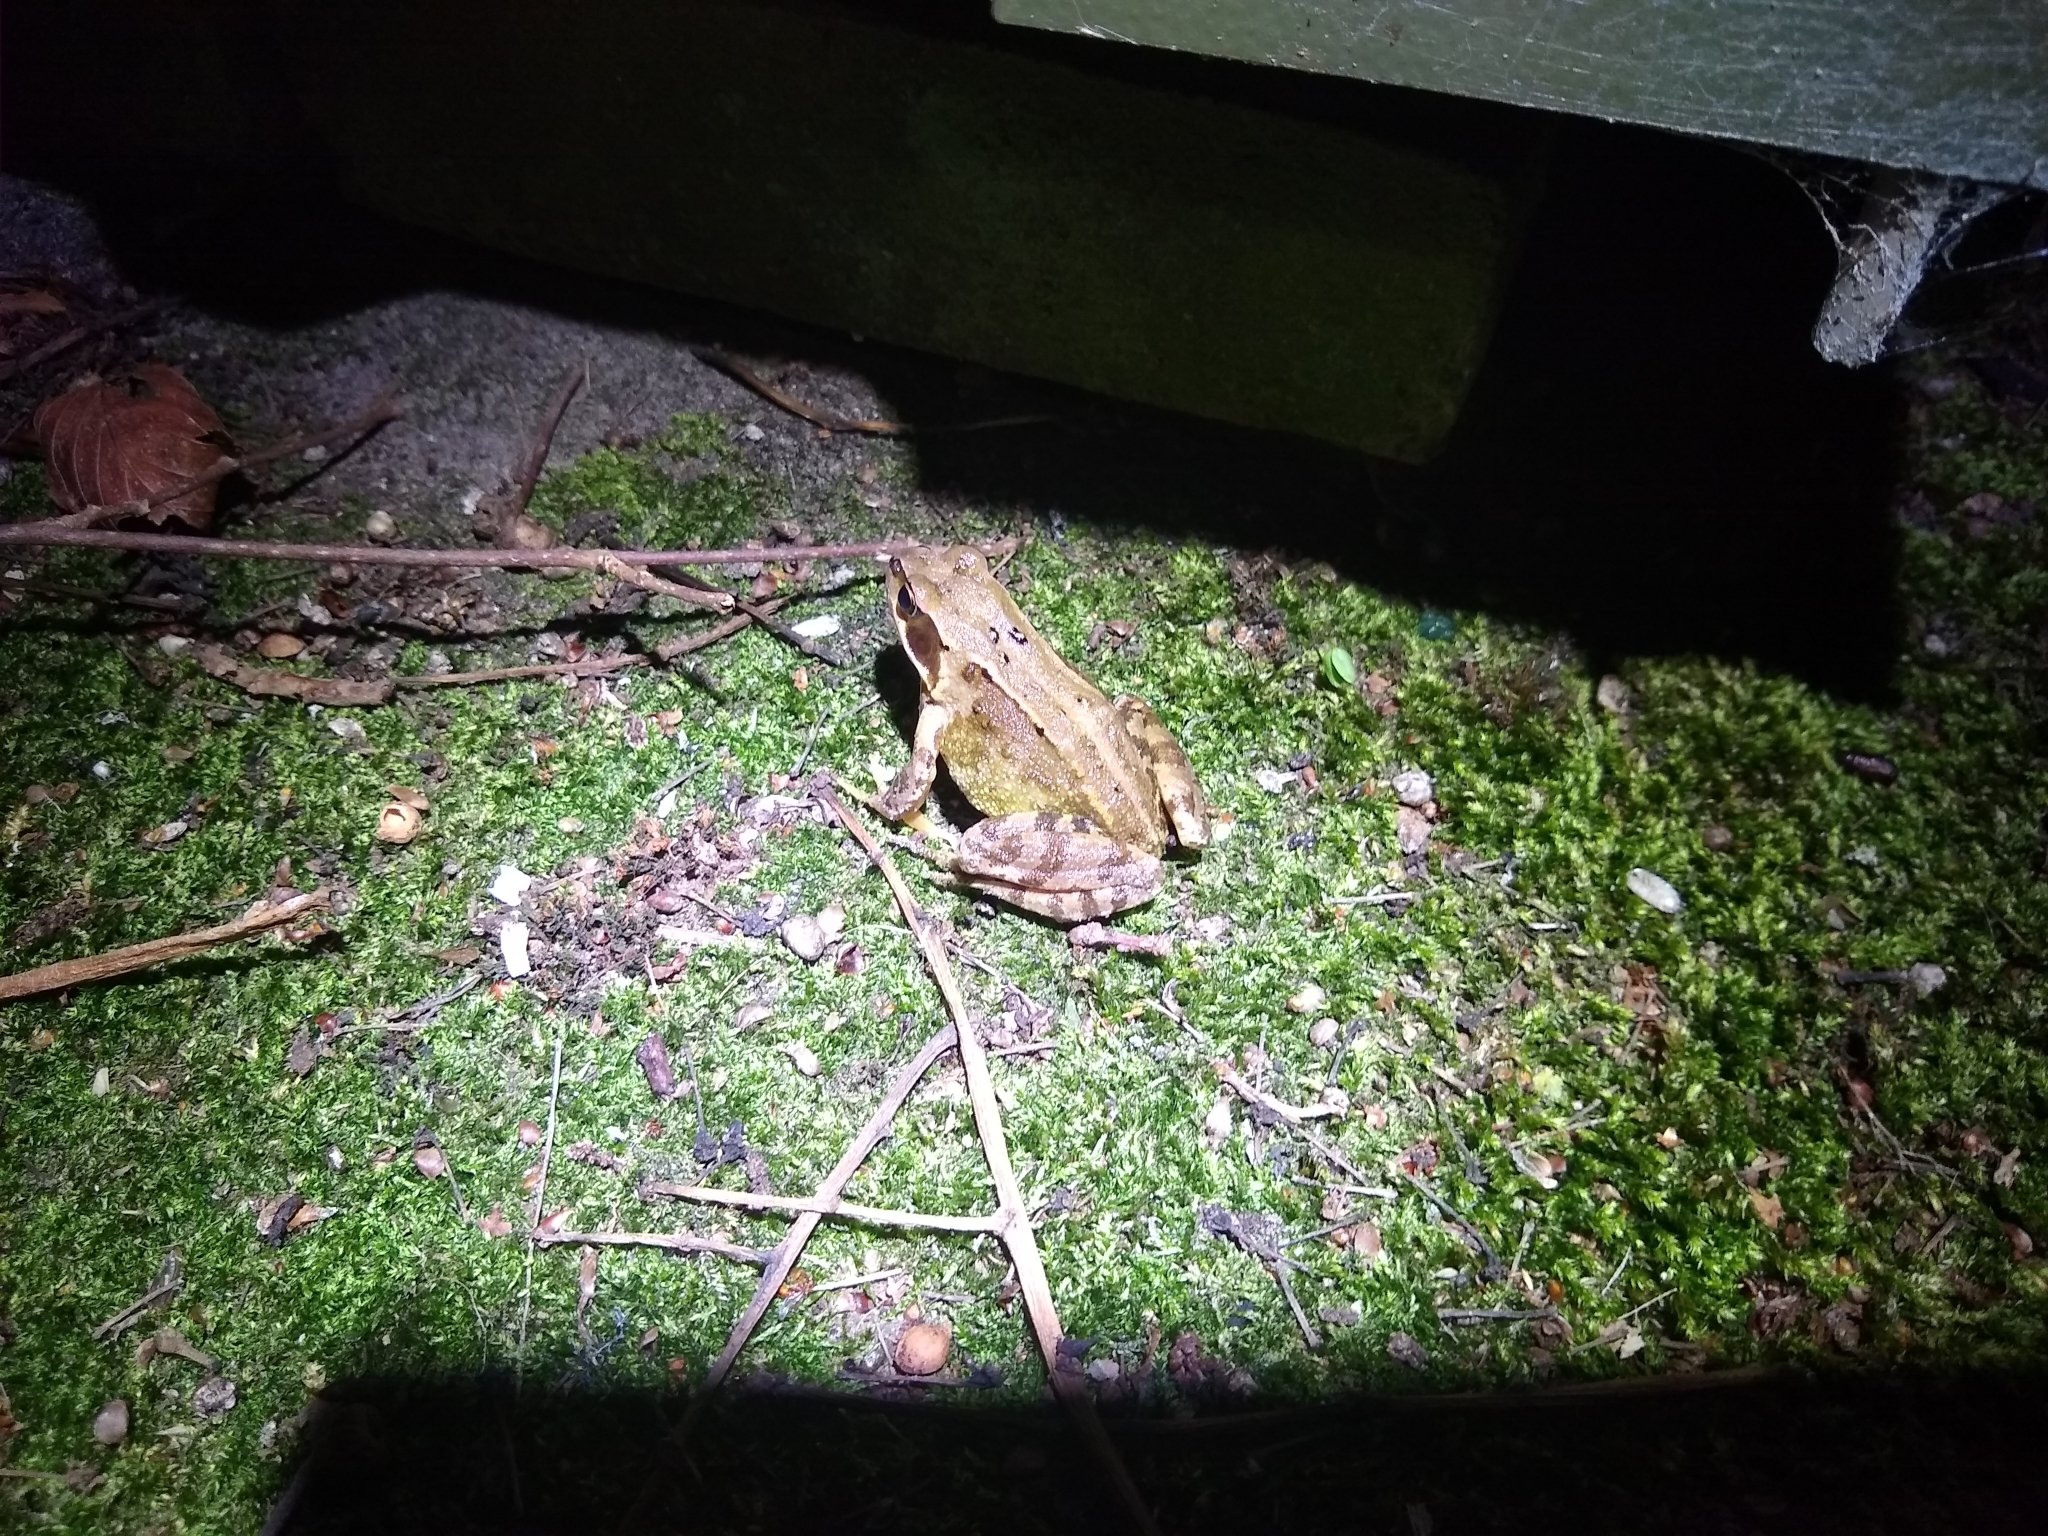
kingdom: Animalia
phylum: Chordata
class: Amphibia
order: Anura
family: Ranidae
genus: Rana
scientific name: Rana temporaria
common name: Common frog
